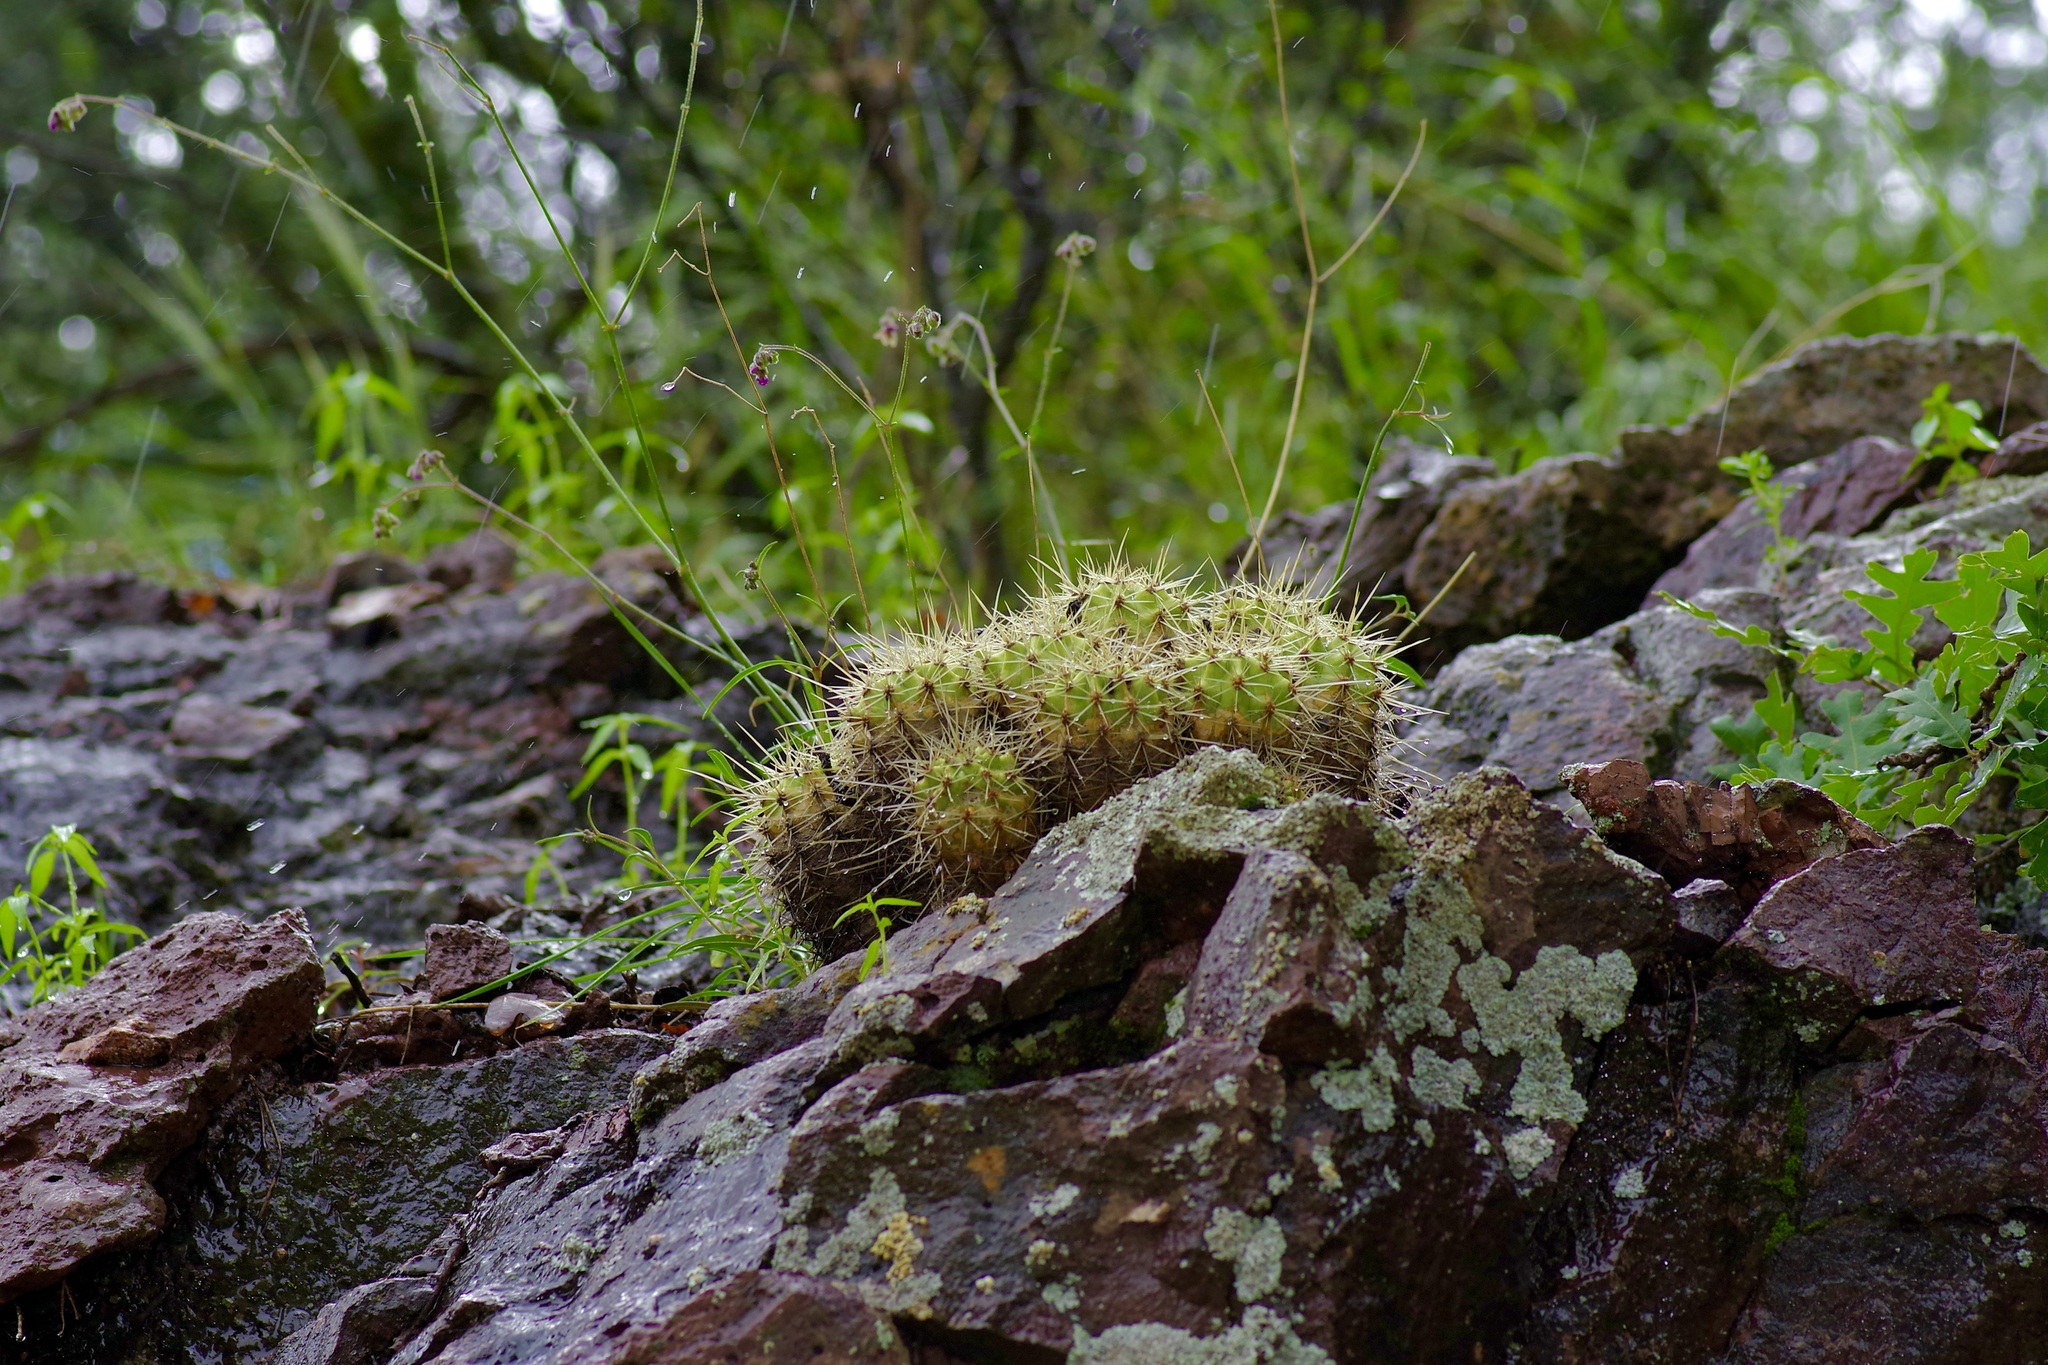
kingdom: Plantae
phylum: Tracheophyta
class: Magnoliopsida
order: Caryophyllales
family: Cactaceae
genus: Echinocereus
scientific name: Echinocereus coccineus
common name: Scarlet hedgehog cactus
